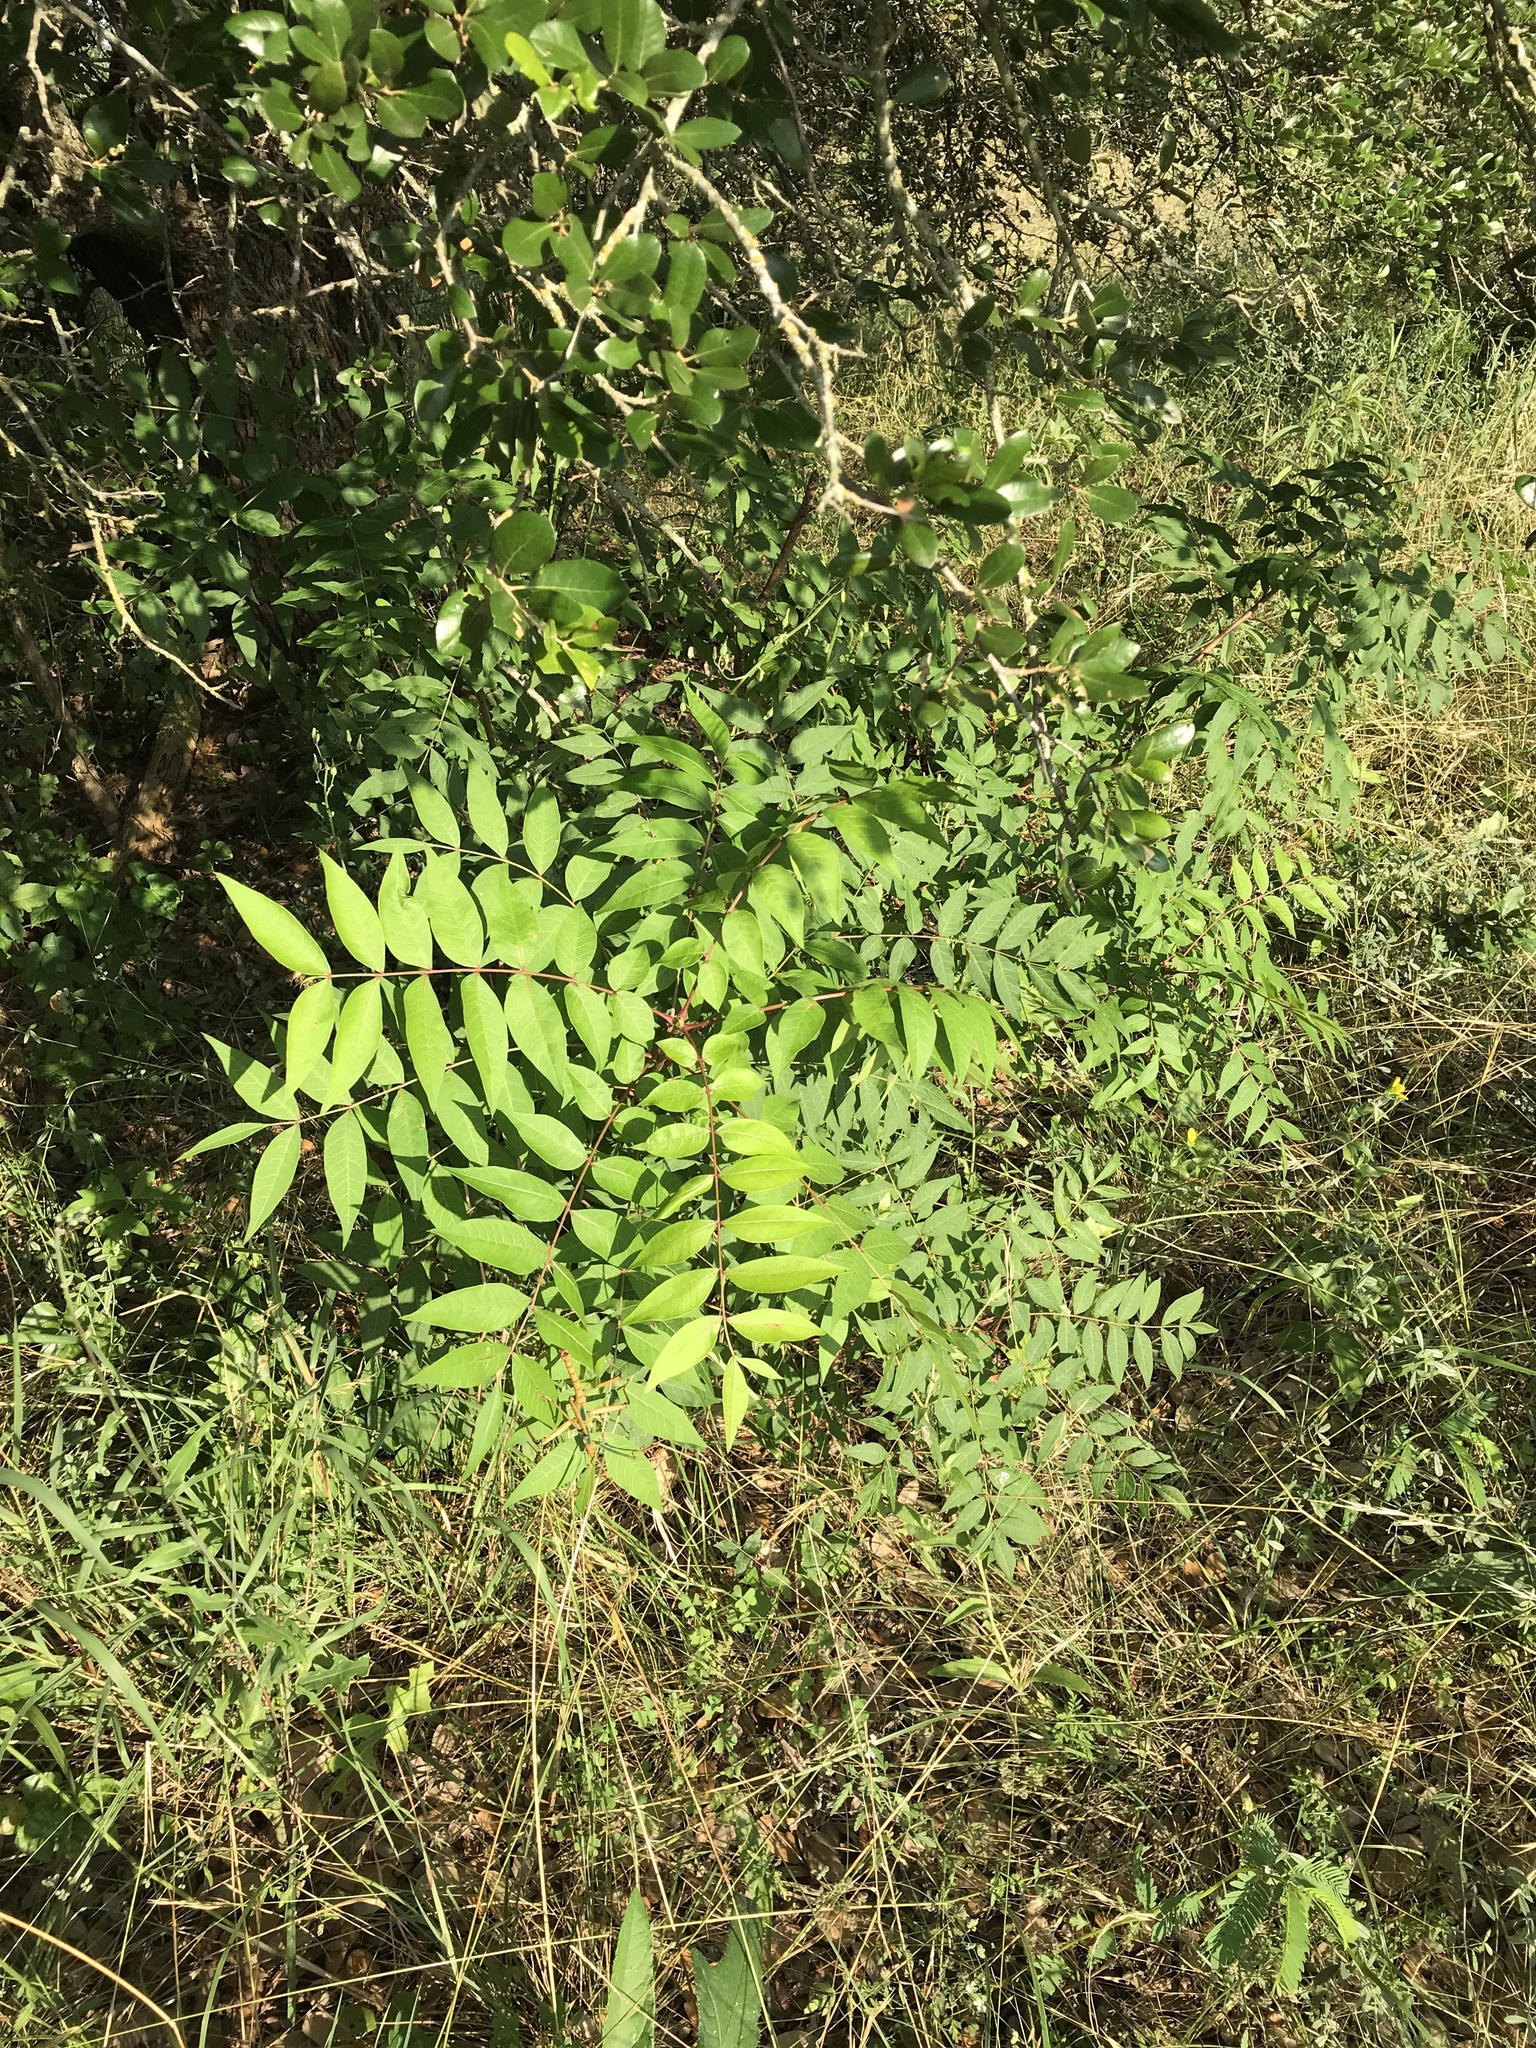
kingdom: Plantae
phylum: Tracheophyta
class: Magnoliopsida
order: Sapindales
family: Anacardiaceae
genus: Pistacia
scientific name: Pistacia chinensis
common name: Chinese pistache
